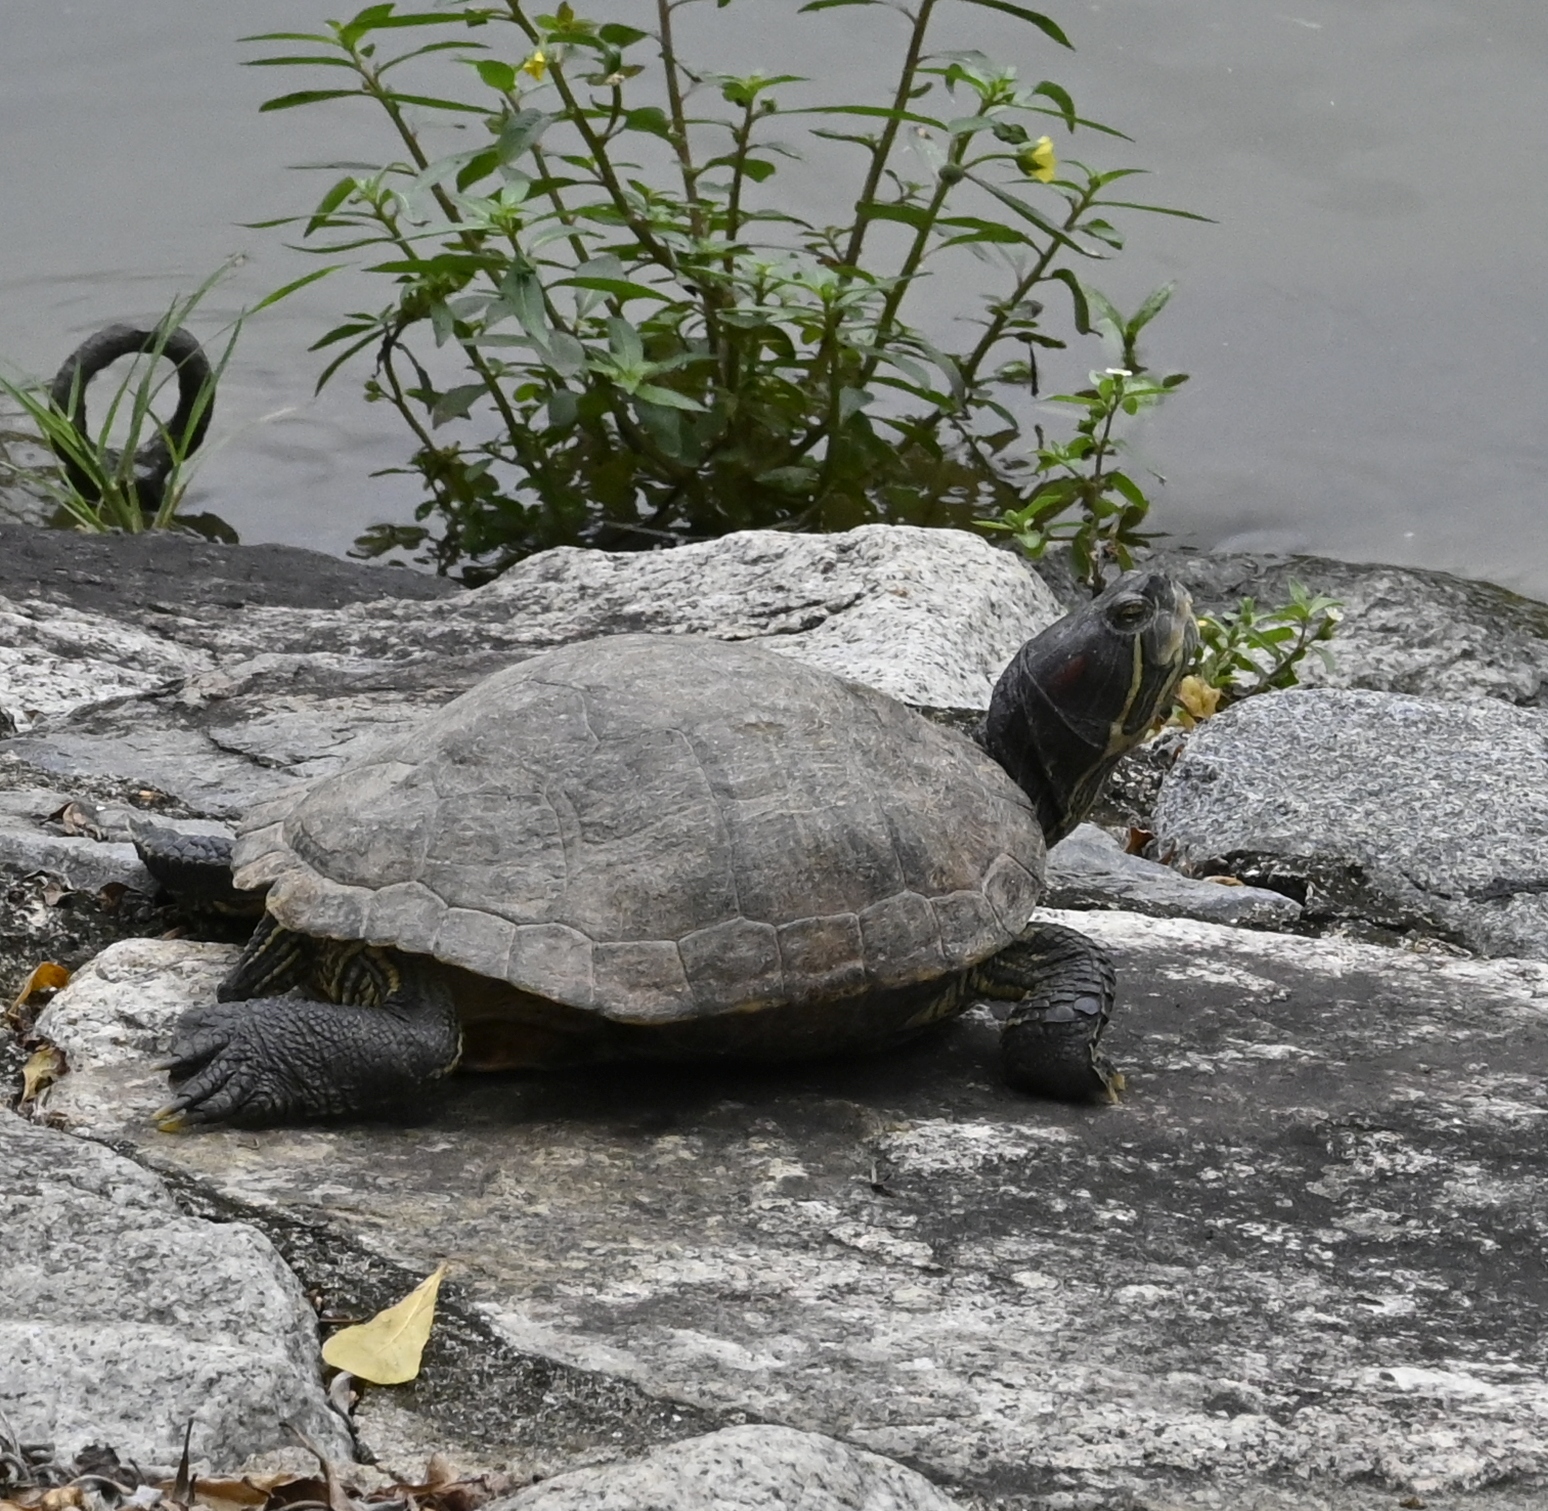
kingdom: Animalia
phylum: Chordata
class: Testudines
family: Emydidae
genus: Trachemys
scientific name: Trachemys scripta
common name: Slider
